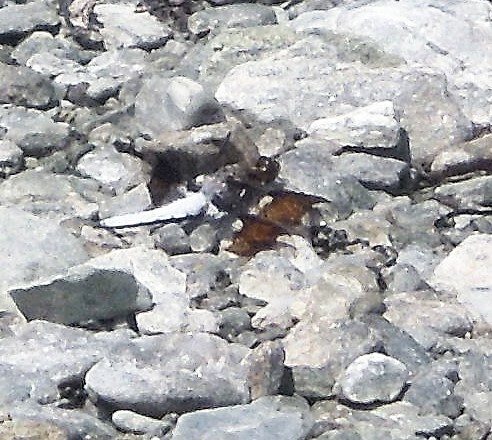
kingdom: Animalia
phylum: Arthropoda
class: Insecta
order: Odonata
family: Libellulidae
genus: Plathemis
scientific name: Plathemis lydia
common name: Common whitetail
